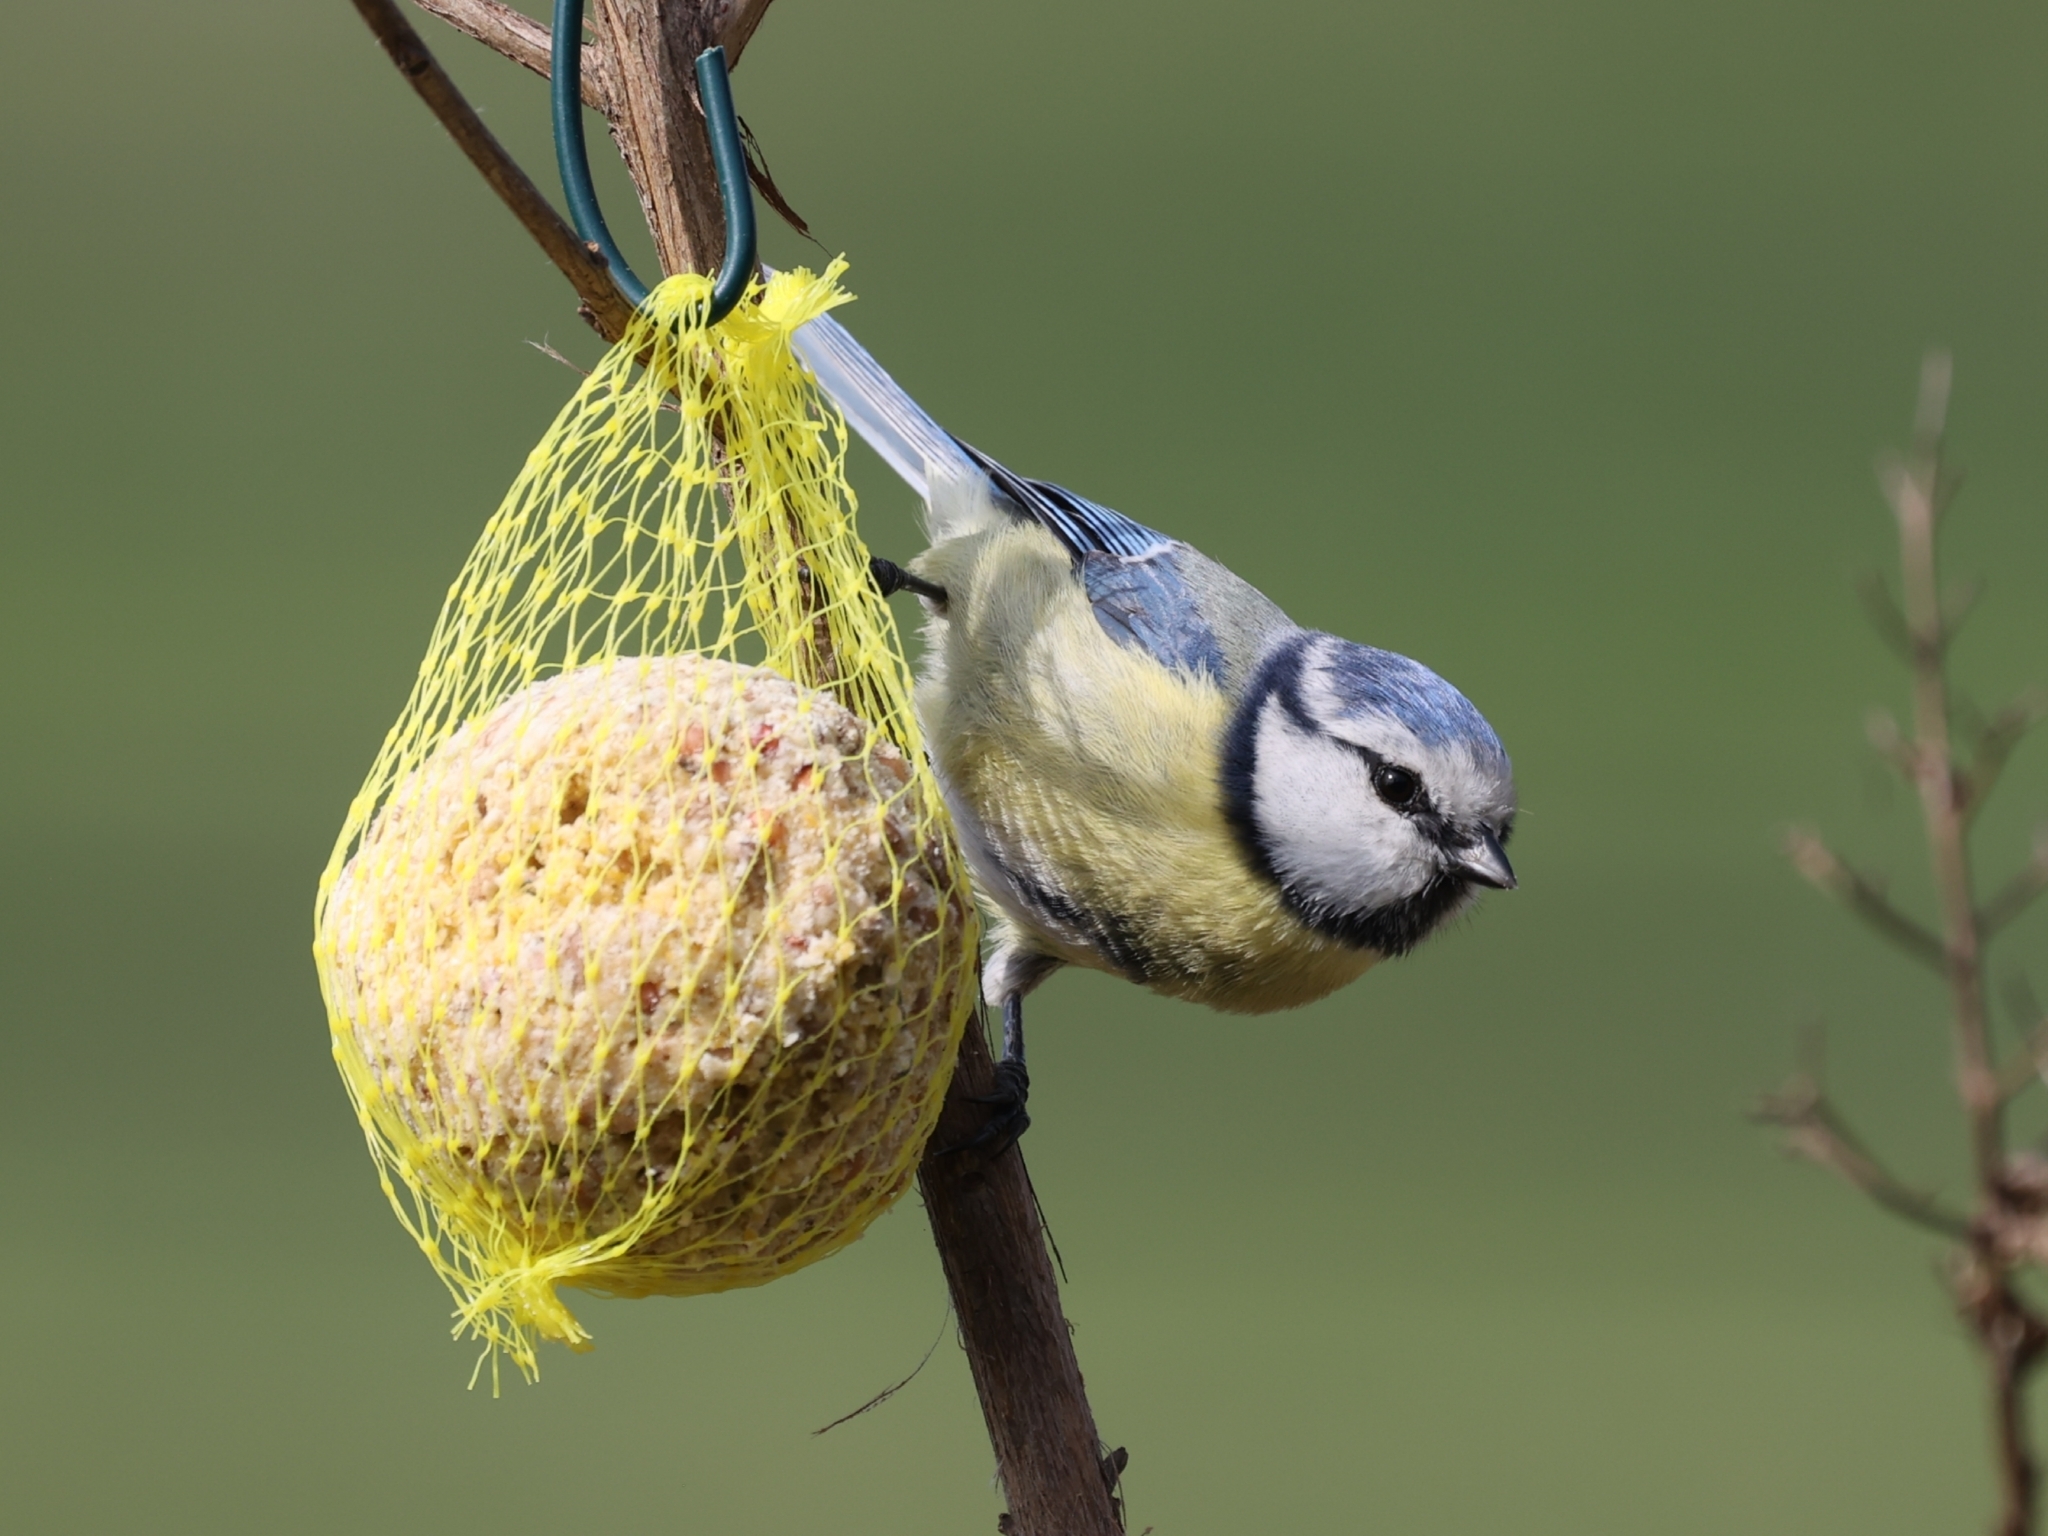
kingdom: Animalia
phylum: Chordata
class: Aves
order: Passeriformes
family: Paridae
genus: Cyanistes
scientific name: Cyanistes caeruleus
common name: Eurasian blue tit
